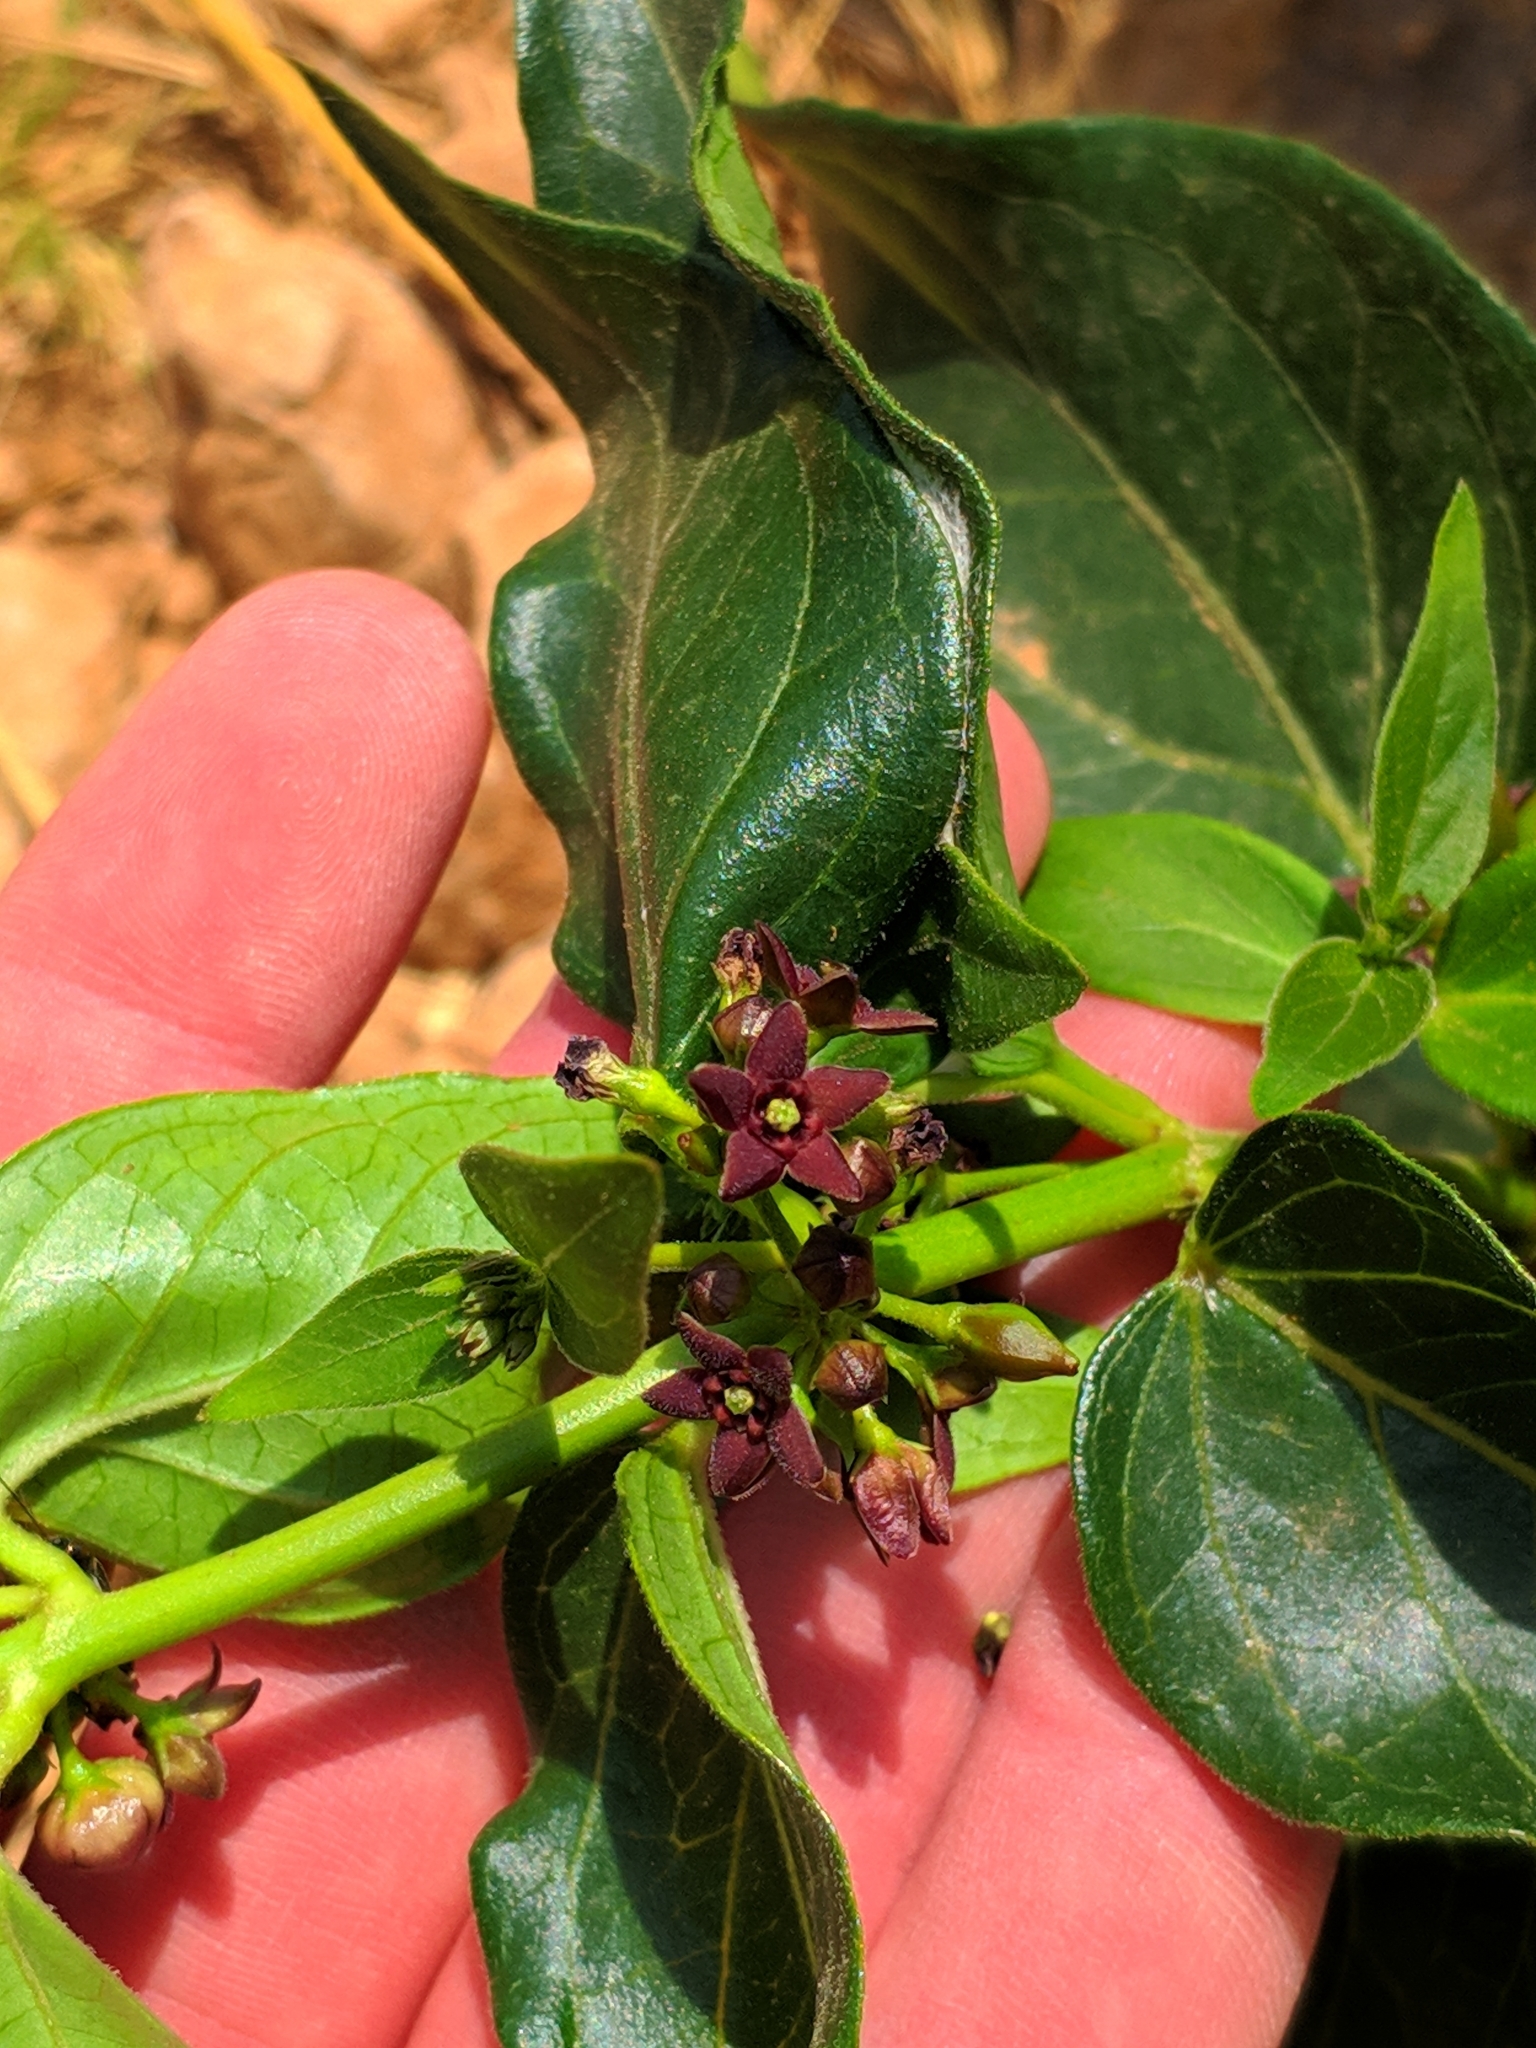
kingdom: Plantae
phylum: Tracheophyta
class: Magnoliopsida
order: Gentianales
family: Apocynaceae
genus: Vincetoxicum
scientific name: Vincetoxicum nigrum
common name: Black swallow-wort
